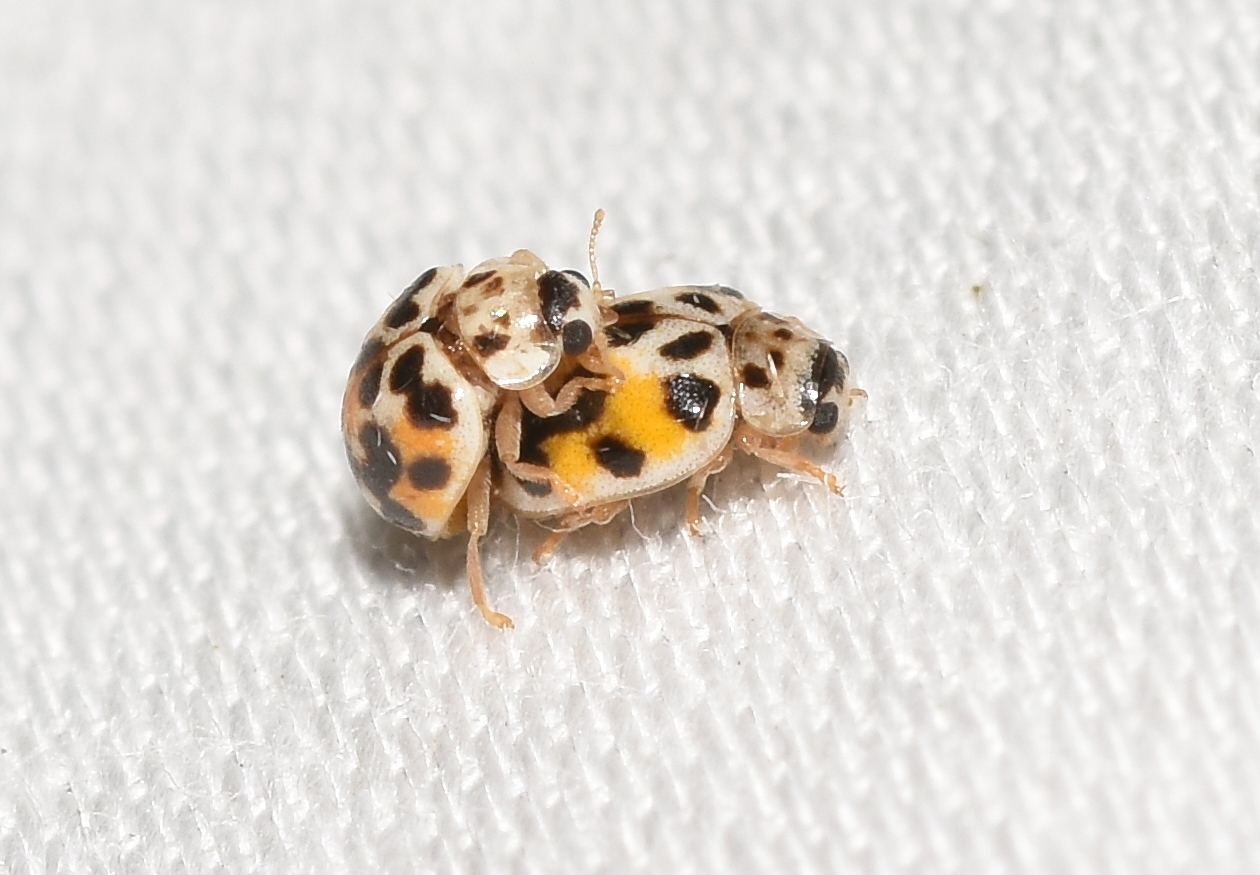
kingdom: Animalia
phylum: Arthropoda
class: Insecta
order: Coleoptera
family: Coccinellidae
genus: Psyllobora
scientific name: Psyllobora vigintimaculata
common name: Ladybird beetle
